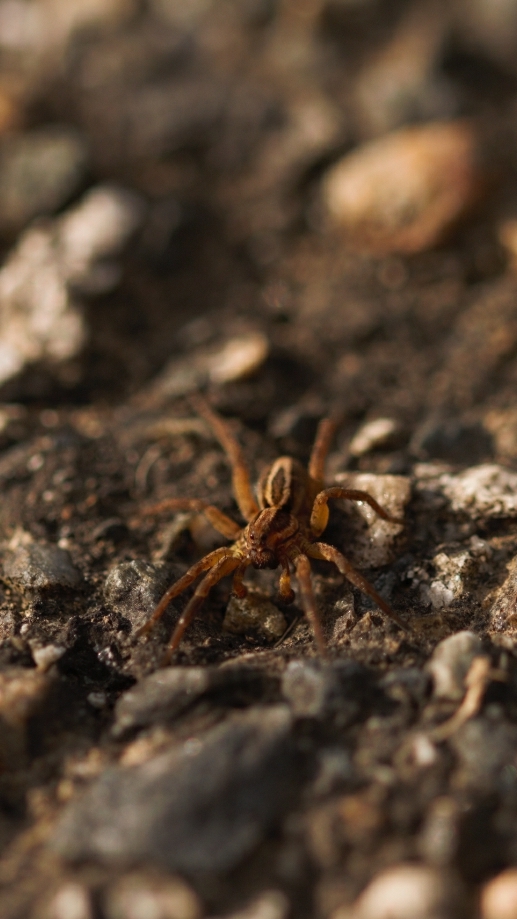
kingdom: Animalia
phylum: Arthropoda
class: Arachnida
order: Araneae
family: Lycosidae
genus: Alopecosa
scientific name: Alopecosa
